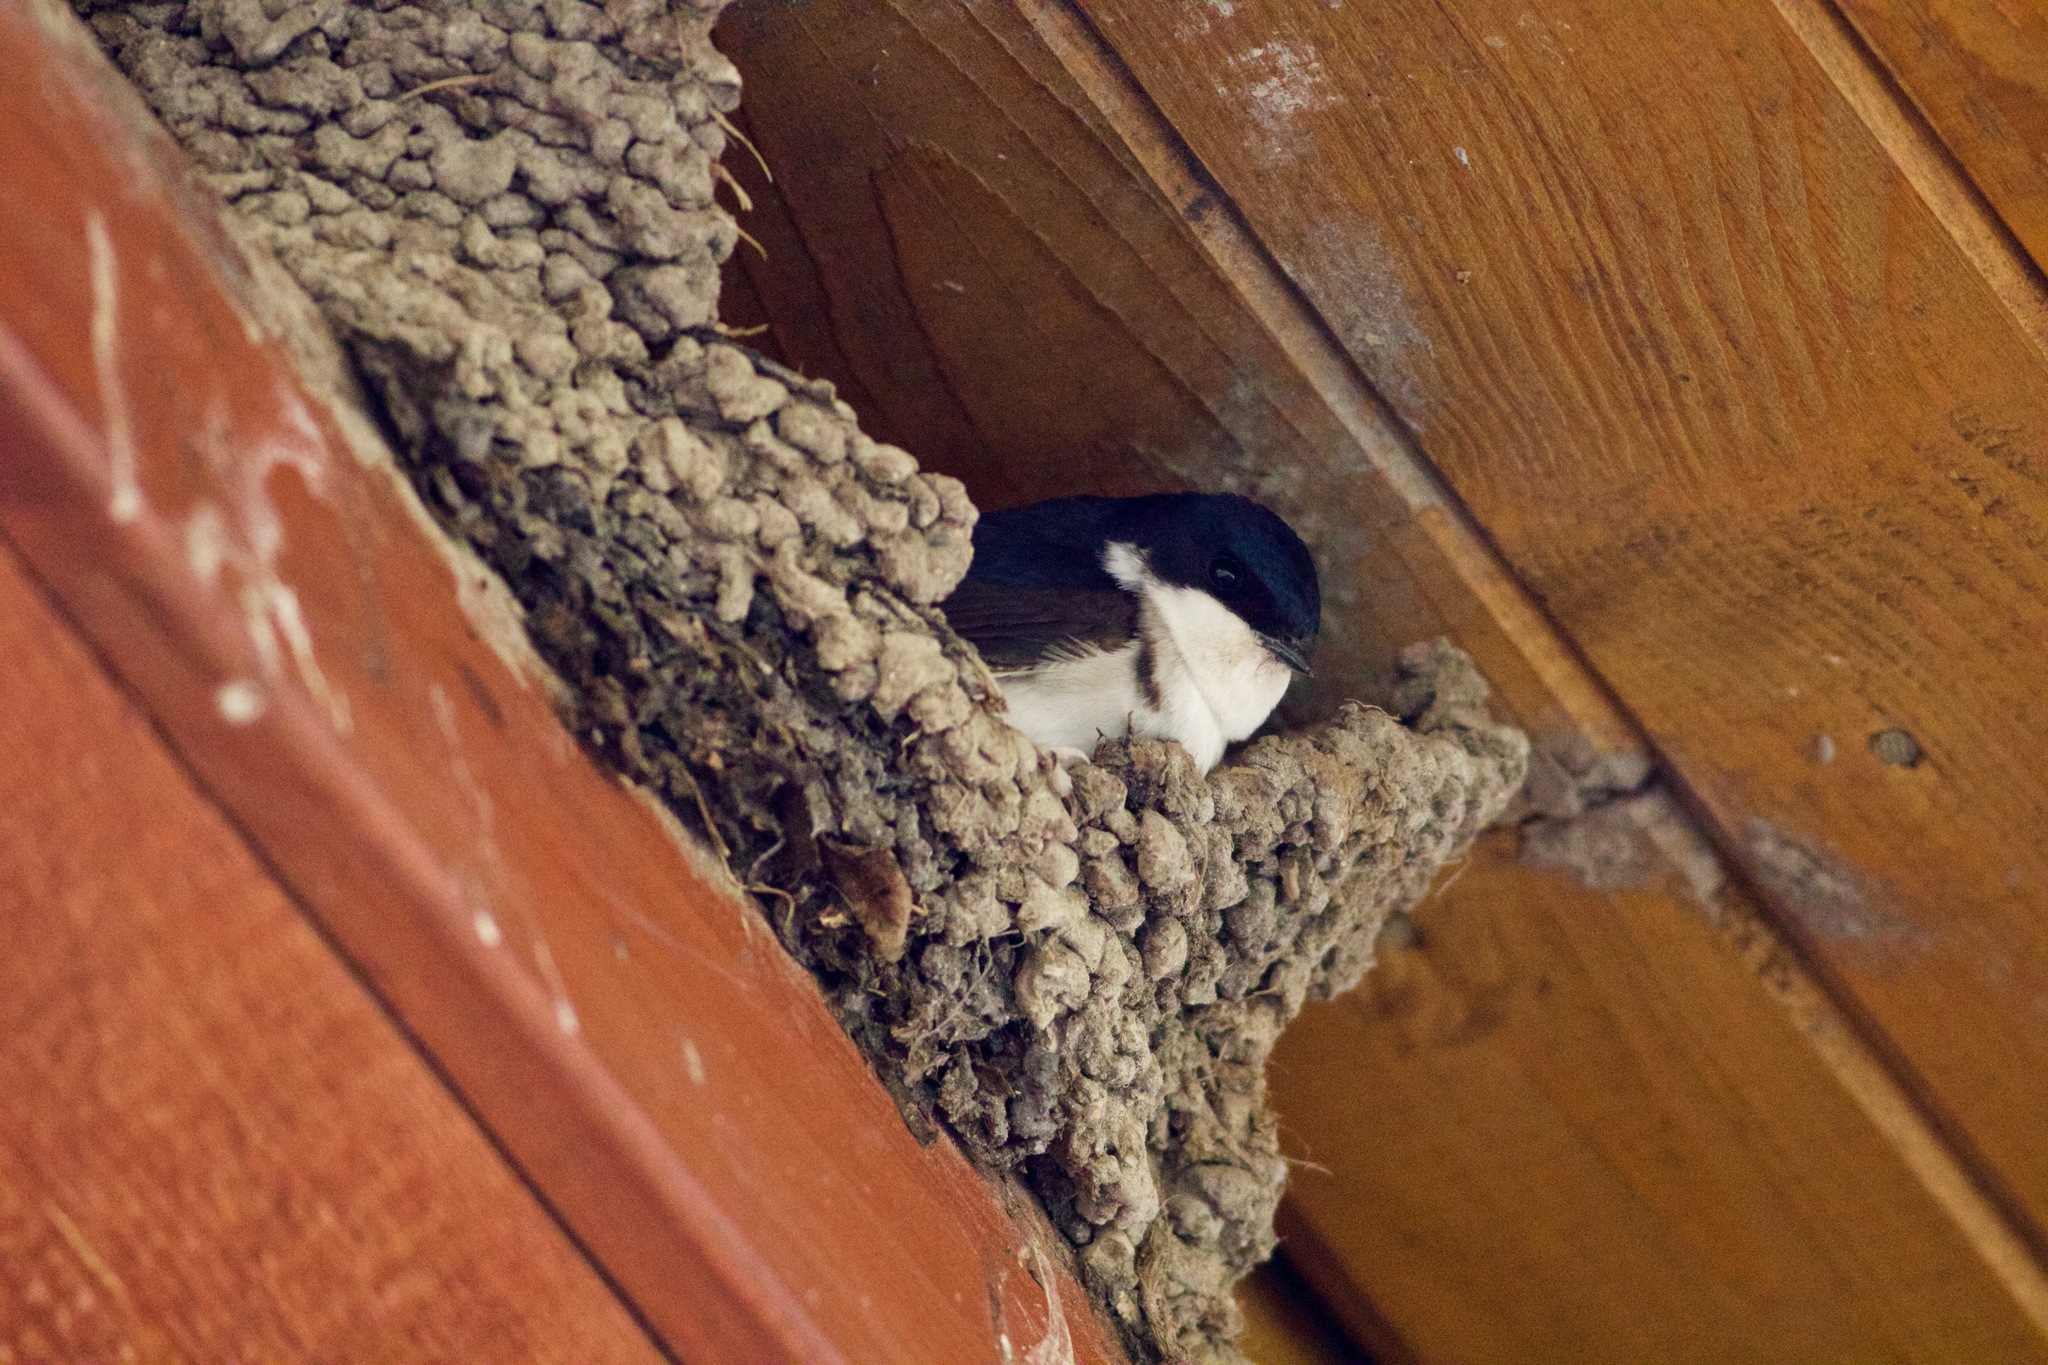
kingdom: Animalia
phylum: Chordata
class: Aves
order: Passeriformes
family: Hirundinidae
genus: Delichon
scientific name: Delichon urbicum
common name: Common house martin
